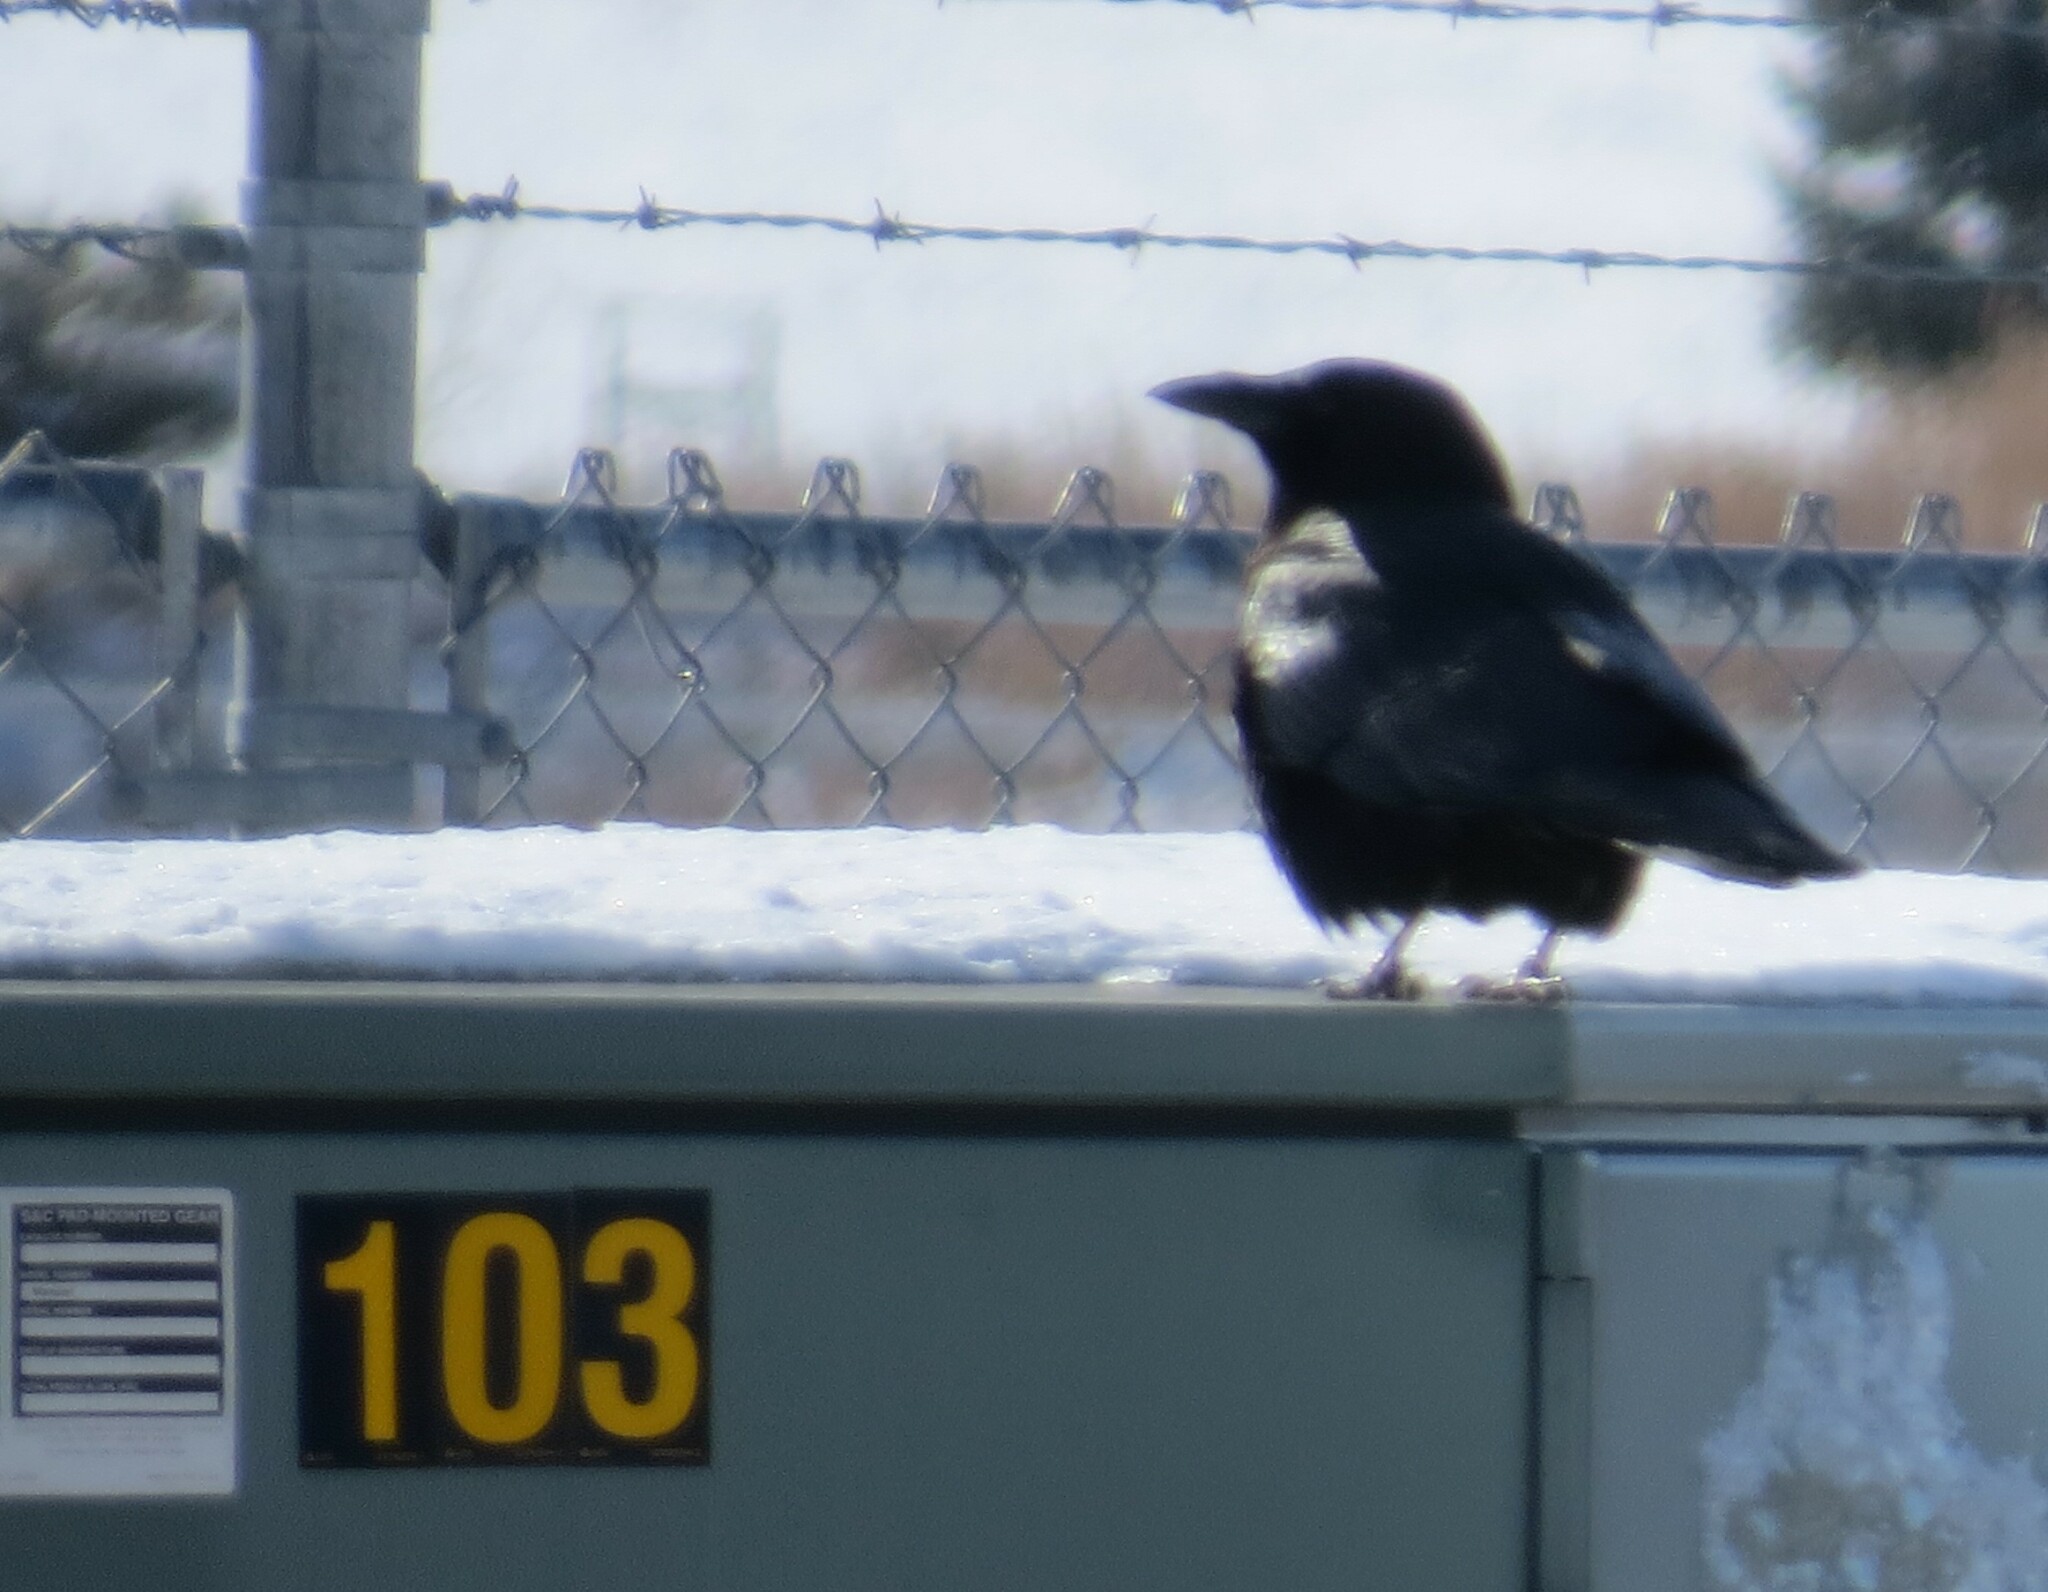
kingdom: Animalia
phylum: Chordata
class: Aves
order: Passeriformes
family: Corvidae
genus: Corvus
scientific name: Corvus brachyrhynchos
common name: American crow
